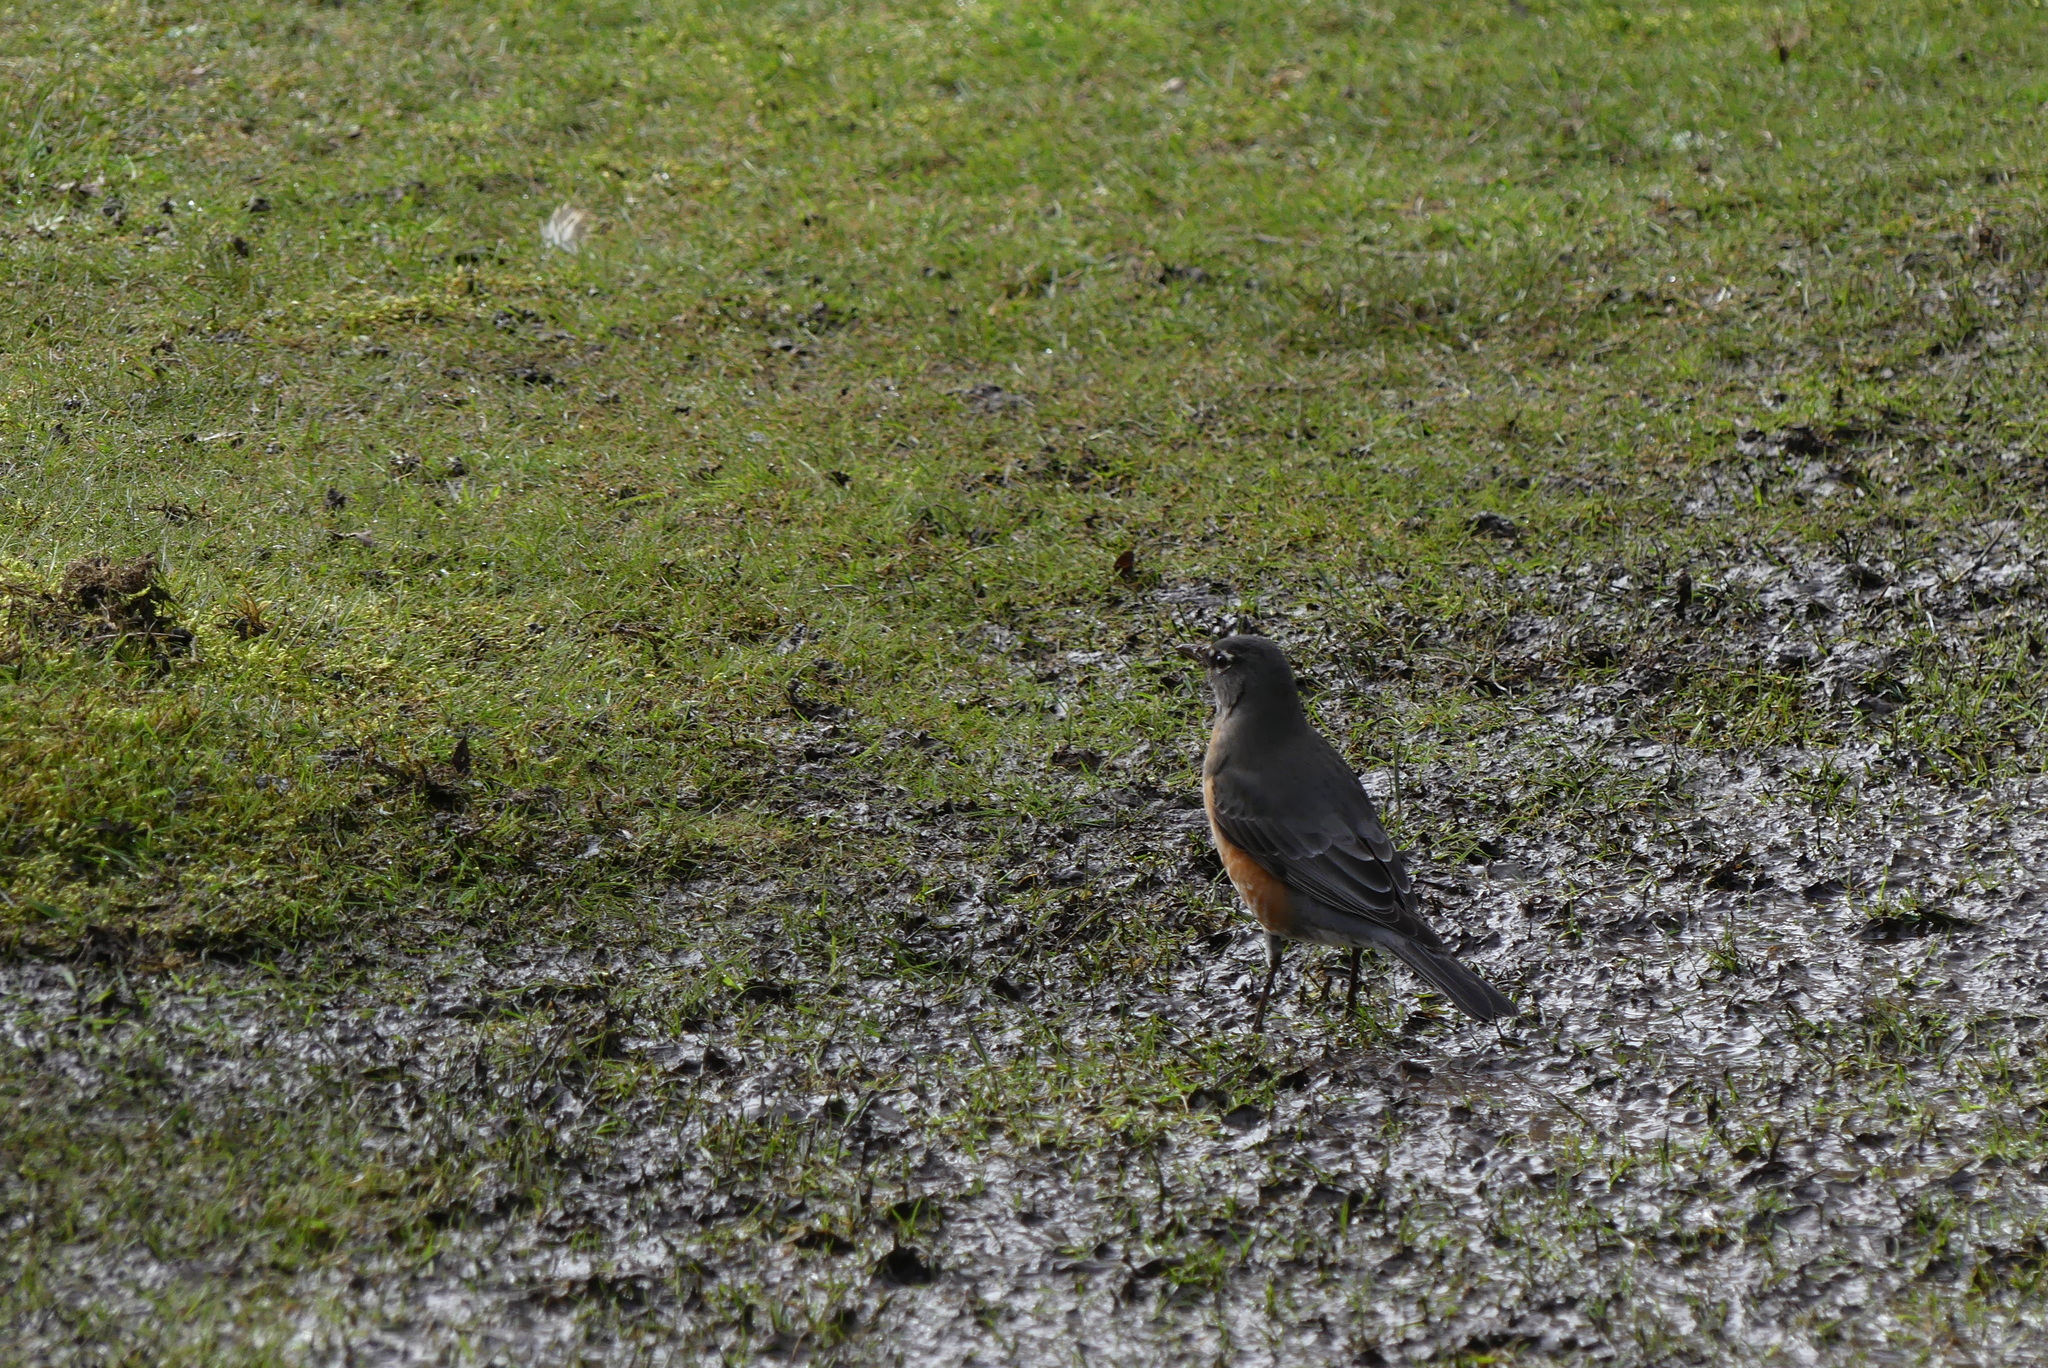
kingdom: Animalia
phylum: Chordata
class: Aves
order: Passeriformes
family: Turdidae
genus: Turdus
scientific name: Turdus migratorius
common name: American robin
